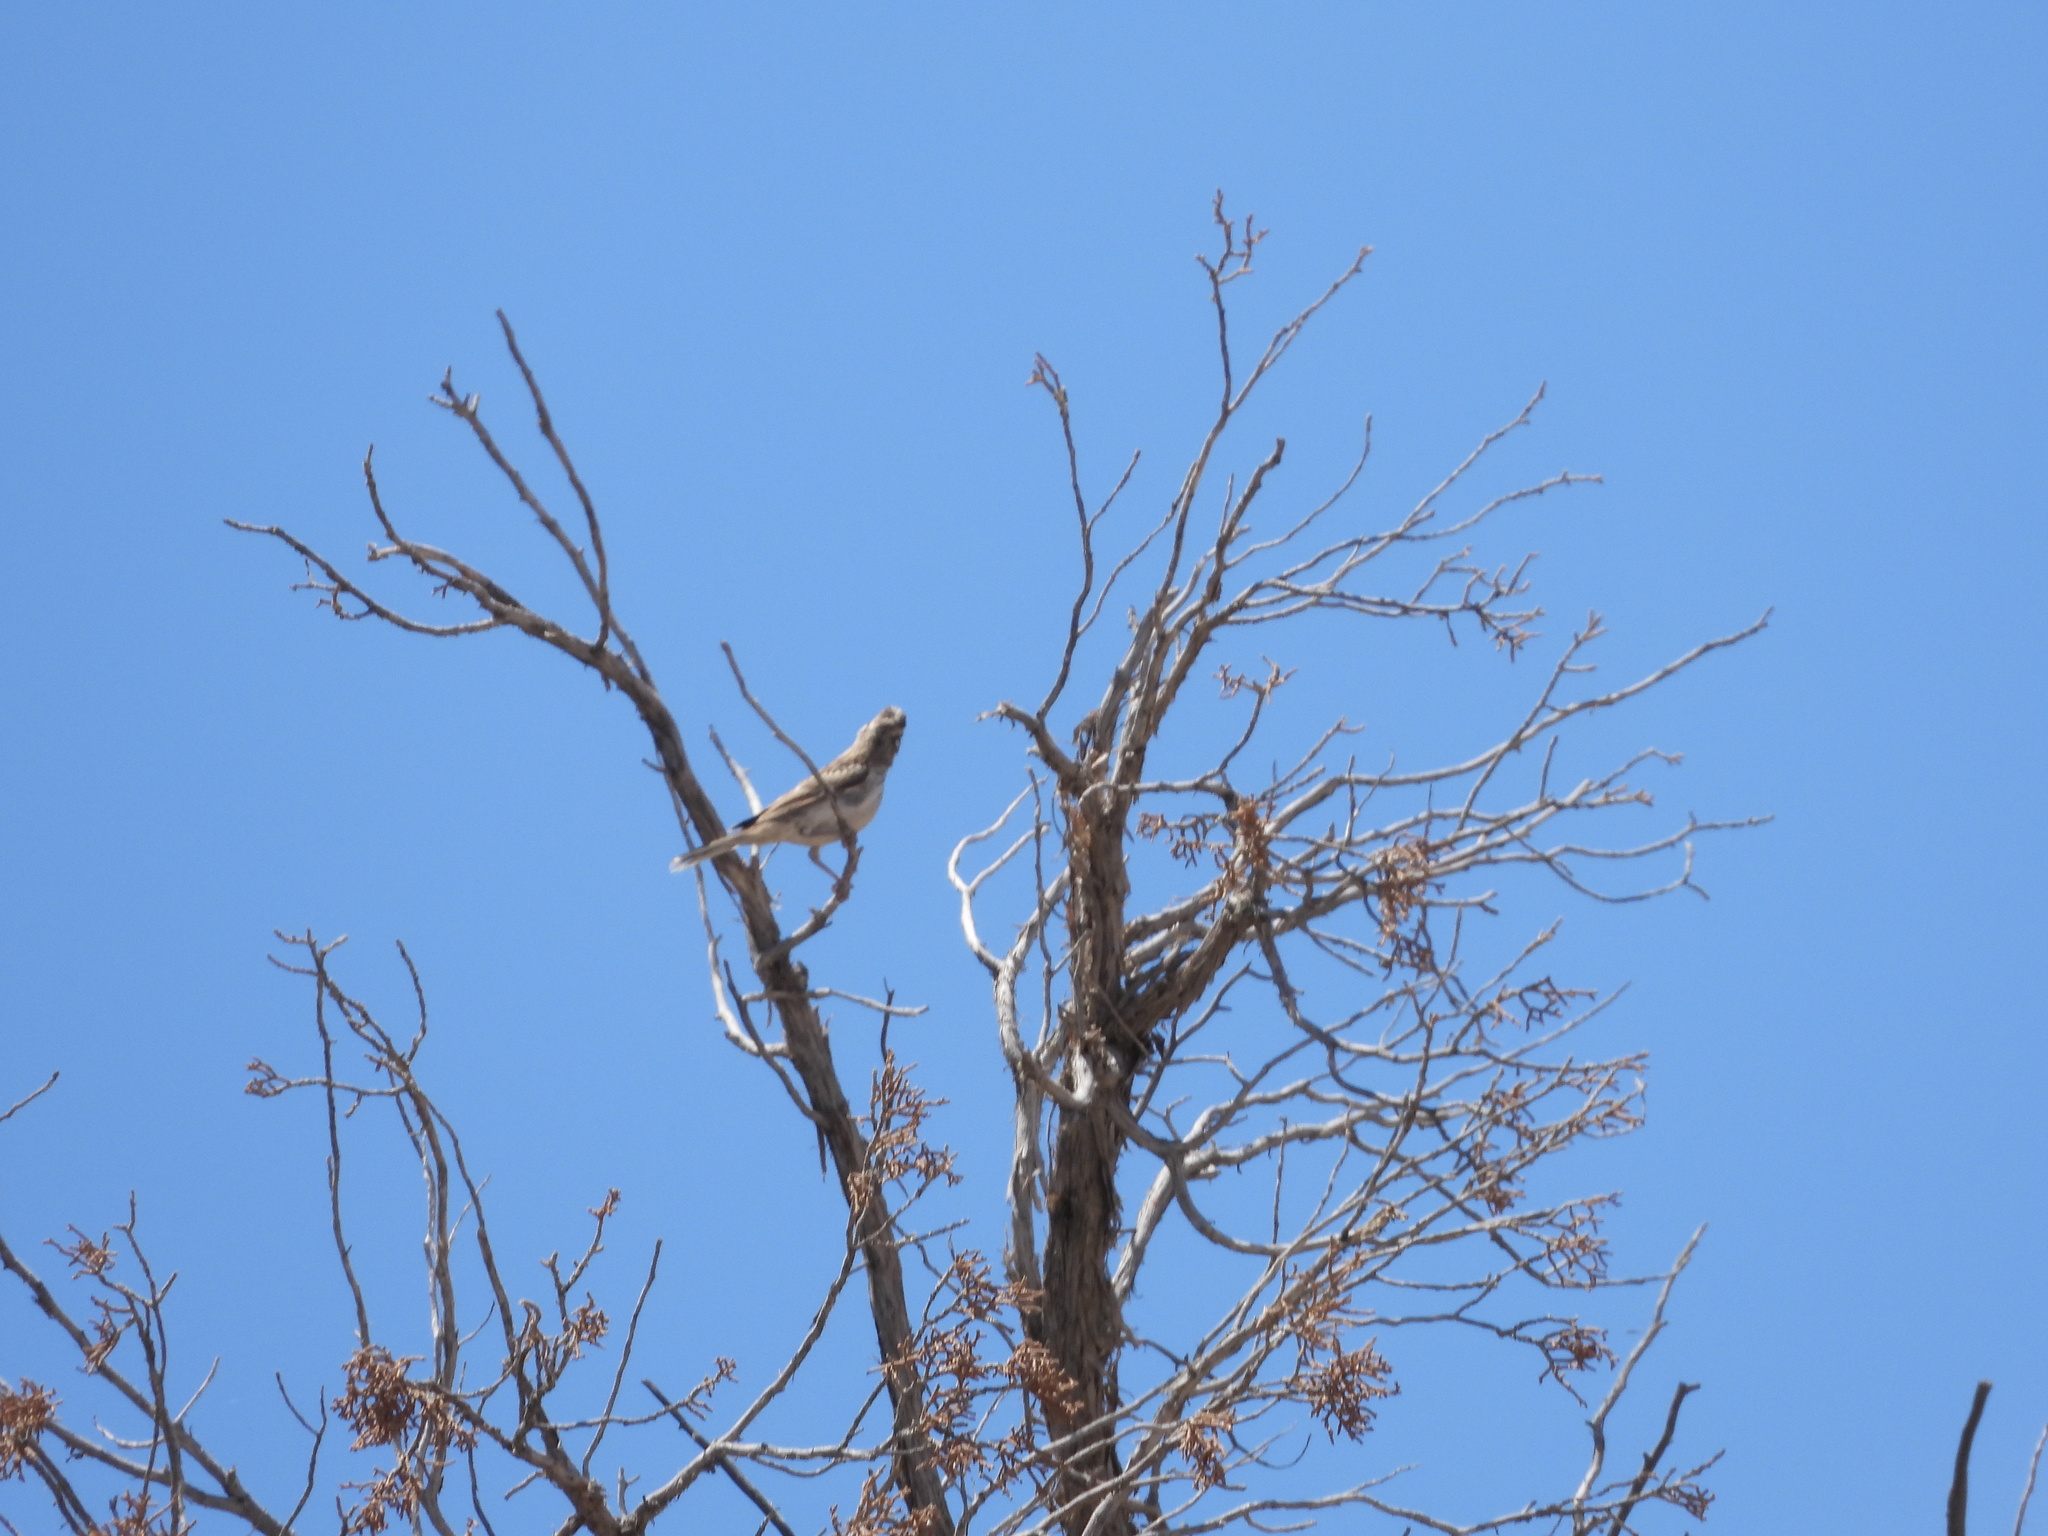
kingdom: Animalia
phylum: Chordata
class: Aves
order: Passeriformes
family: Passerellidae
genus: Chondestes
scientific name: Chondestes grammacus
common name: Lark sparrow
